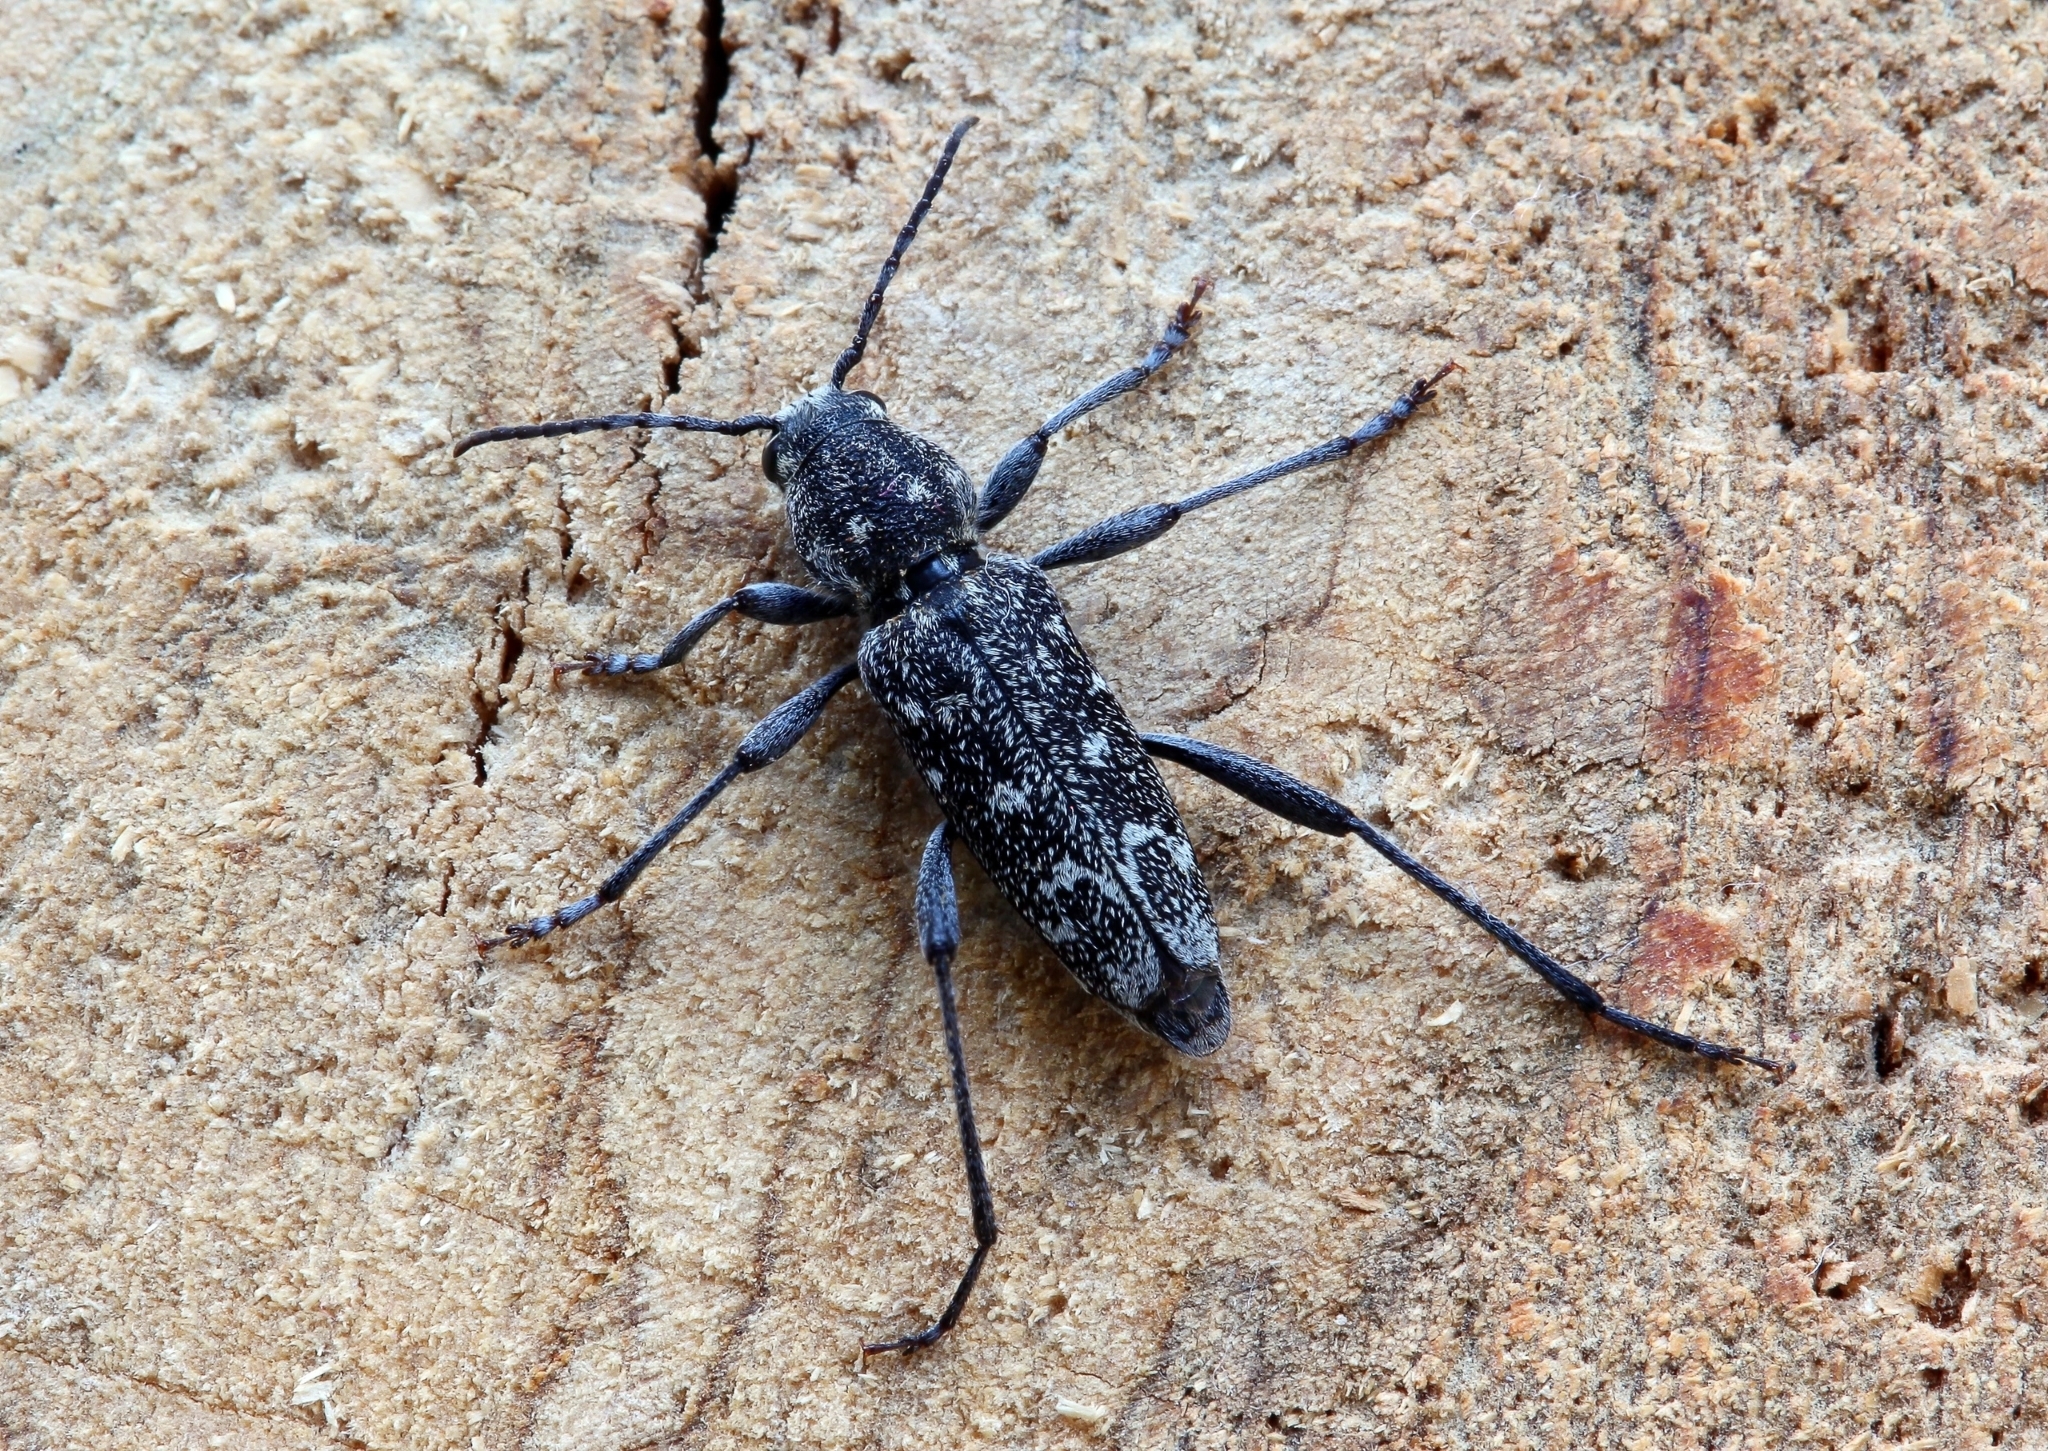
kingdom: Animalia
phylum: Arthropoda
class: Insecta
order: Coleoptera
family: Cerambycidae
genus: Xylotrechus
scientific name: Xylotrechus rusticus
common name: Grey tiger long-horned beetle
